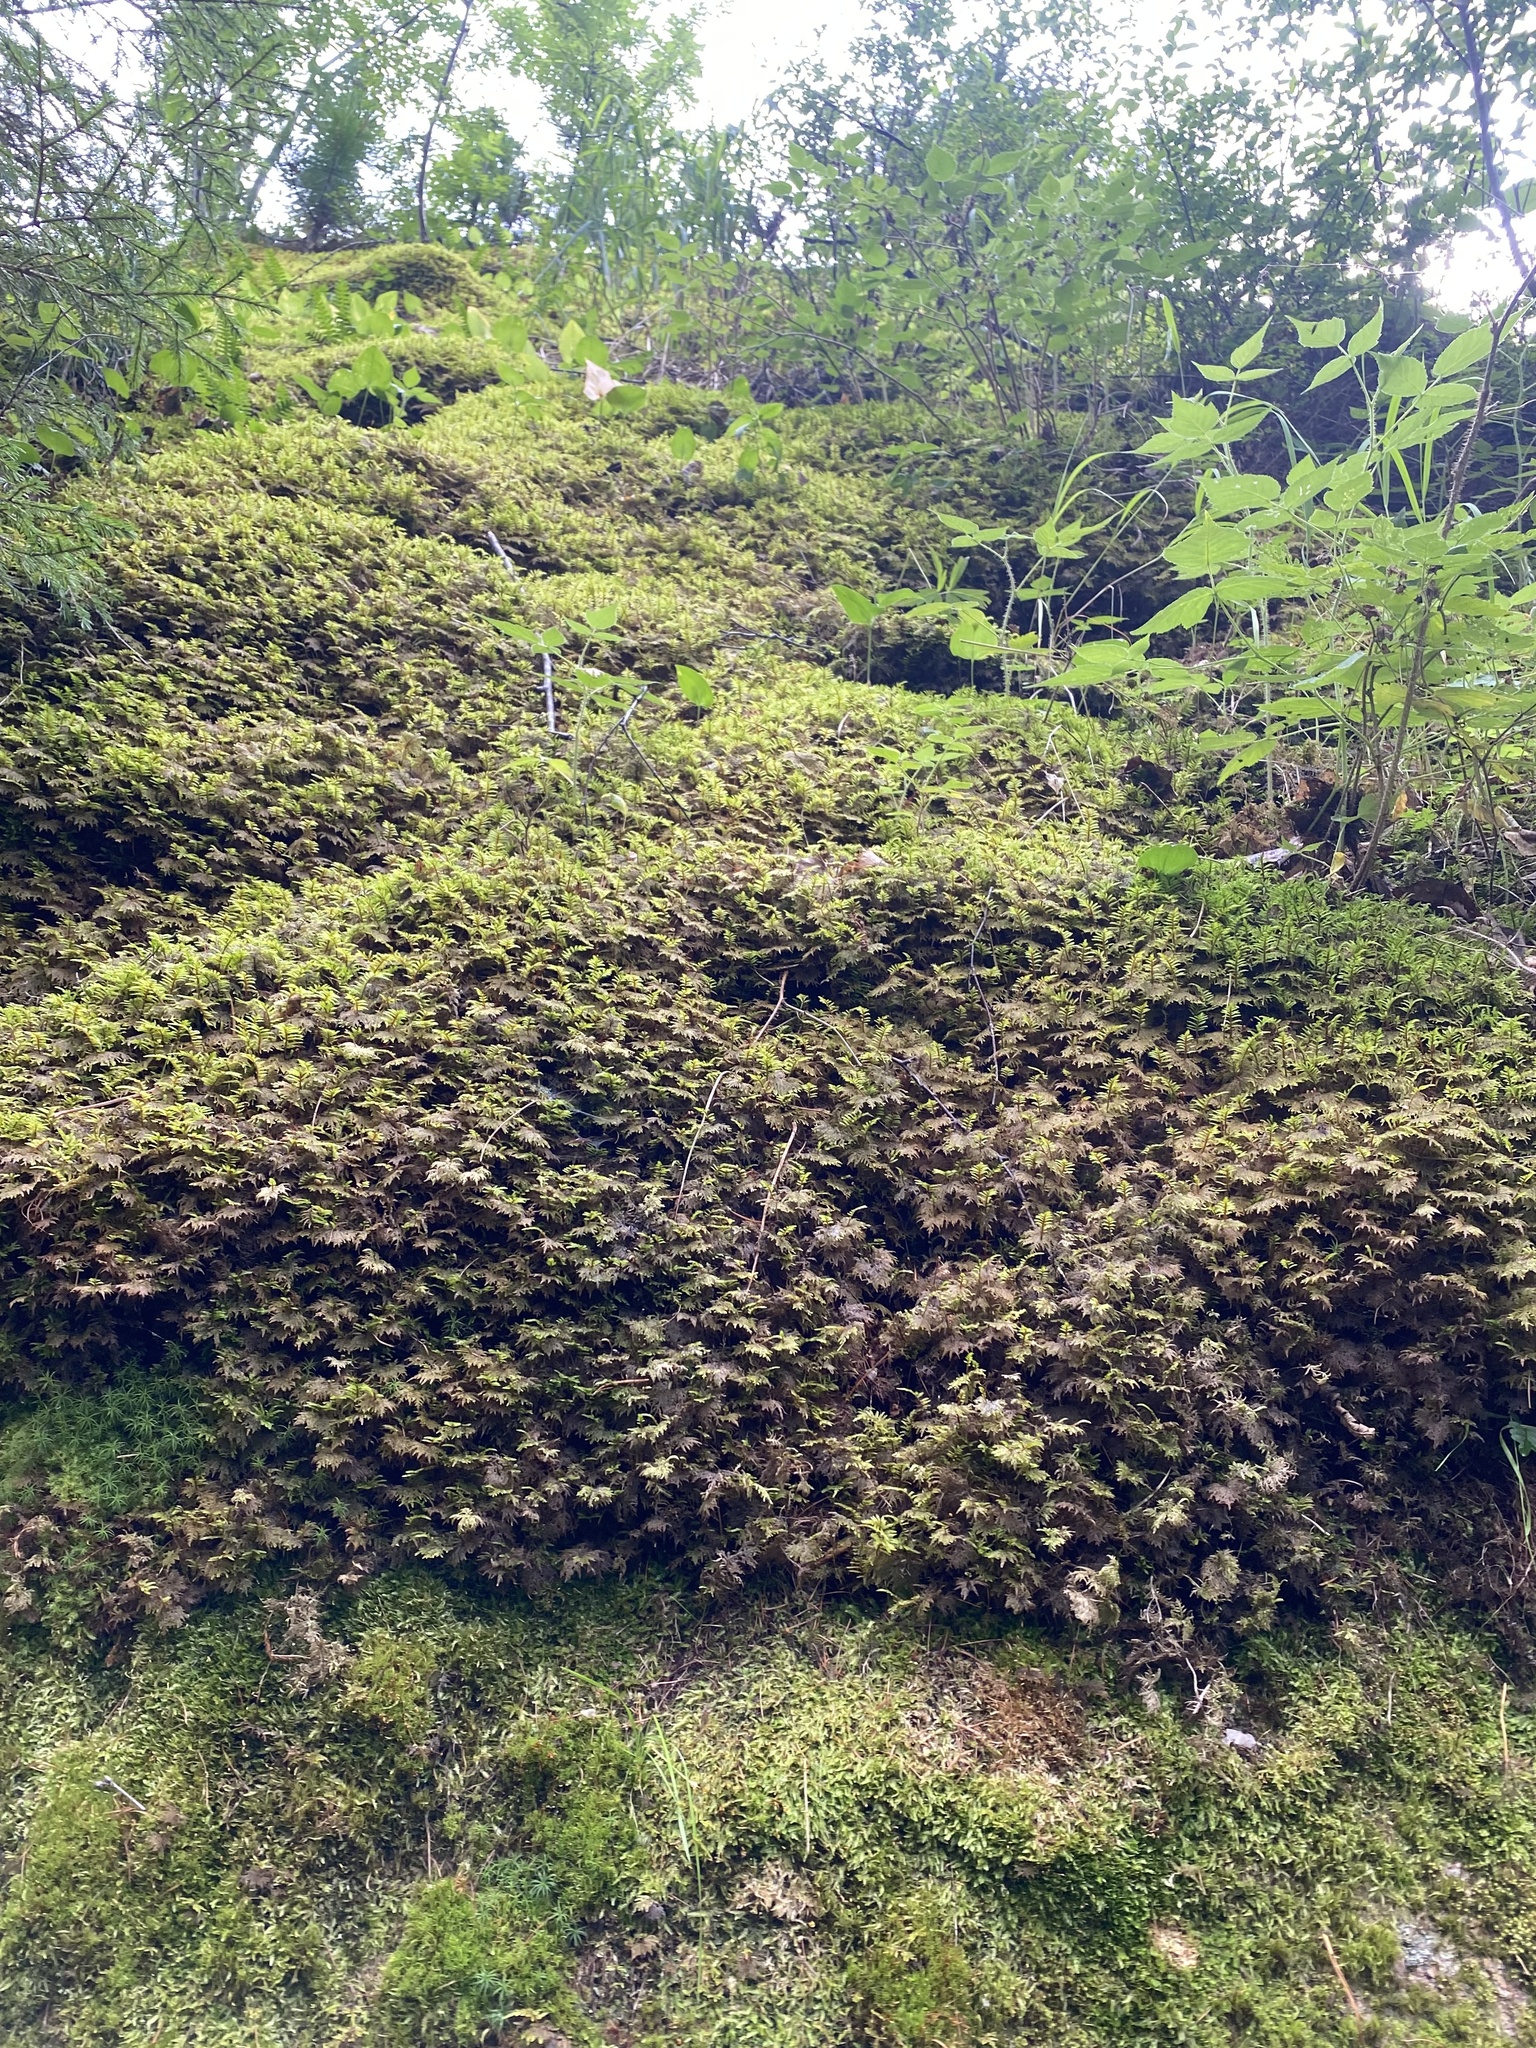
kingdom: Plantae
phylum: Bryophyta
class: Bryopsida
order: Hypnales
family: Hylocomiaceae
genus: Hylocomium
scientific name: Hylocomium splendens
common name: Stairstep moss
